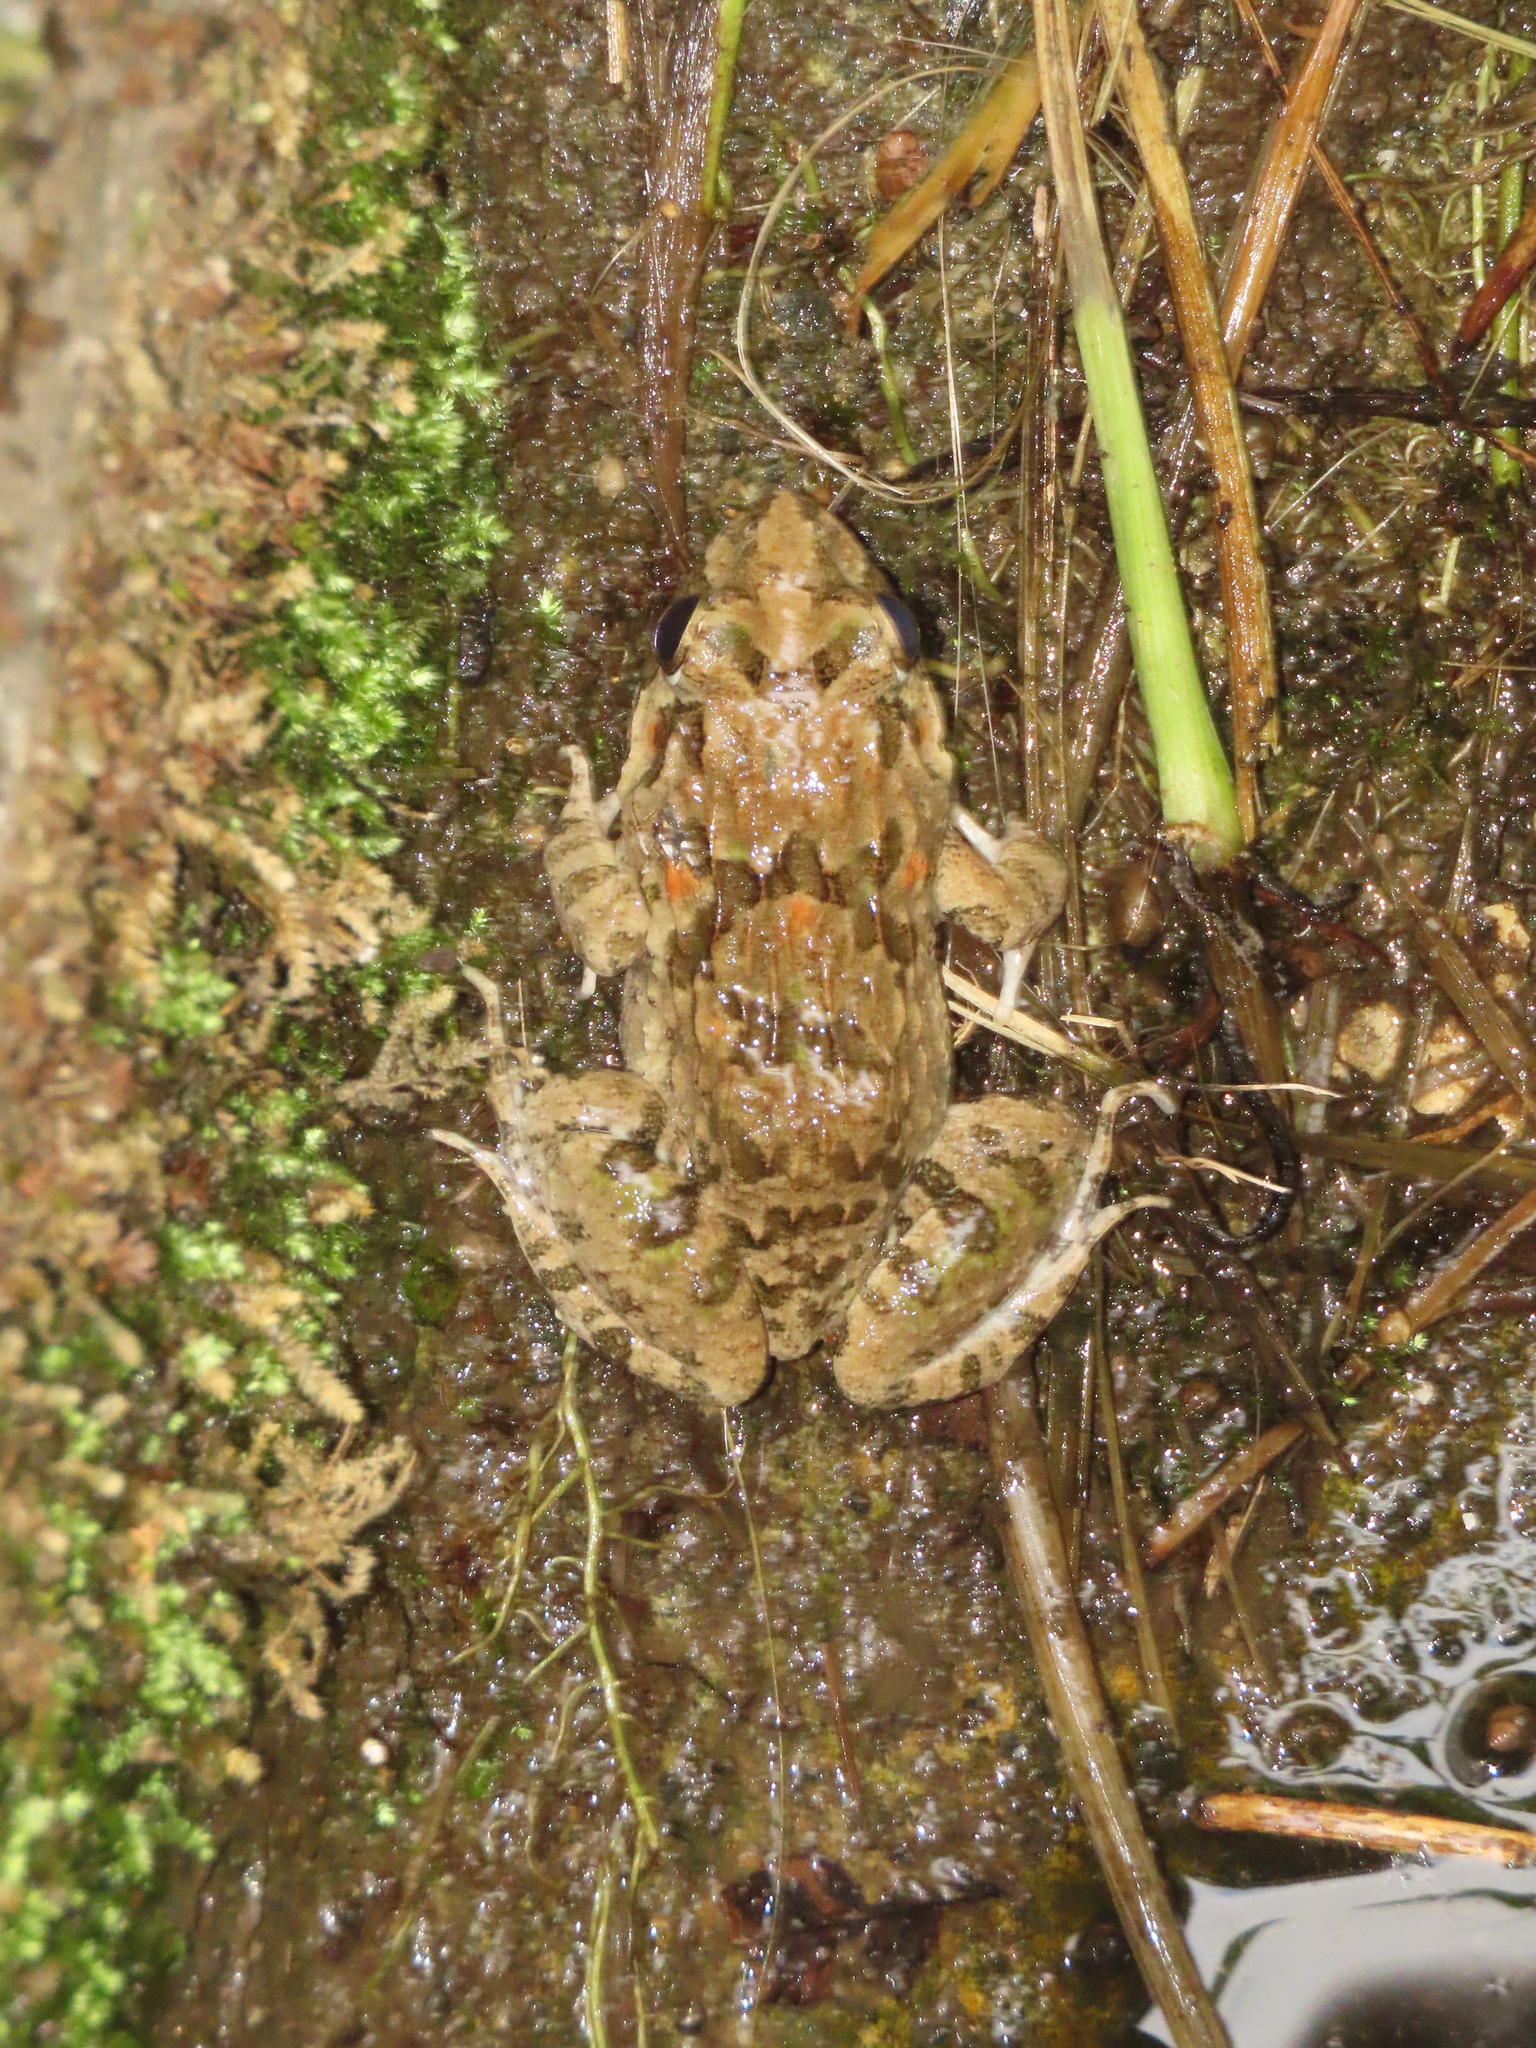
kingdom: Animalia
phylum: Chordata
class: Amphibia
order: Anura
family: Dicroglossidae
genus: Fejervarya
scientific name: Fejervarya limnocharis
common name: Asian grass frog/common pond frog/field frog/grass frog/indian rice frog
